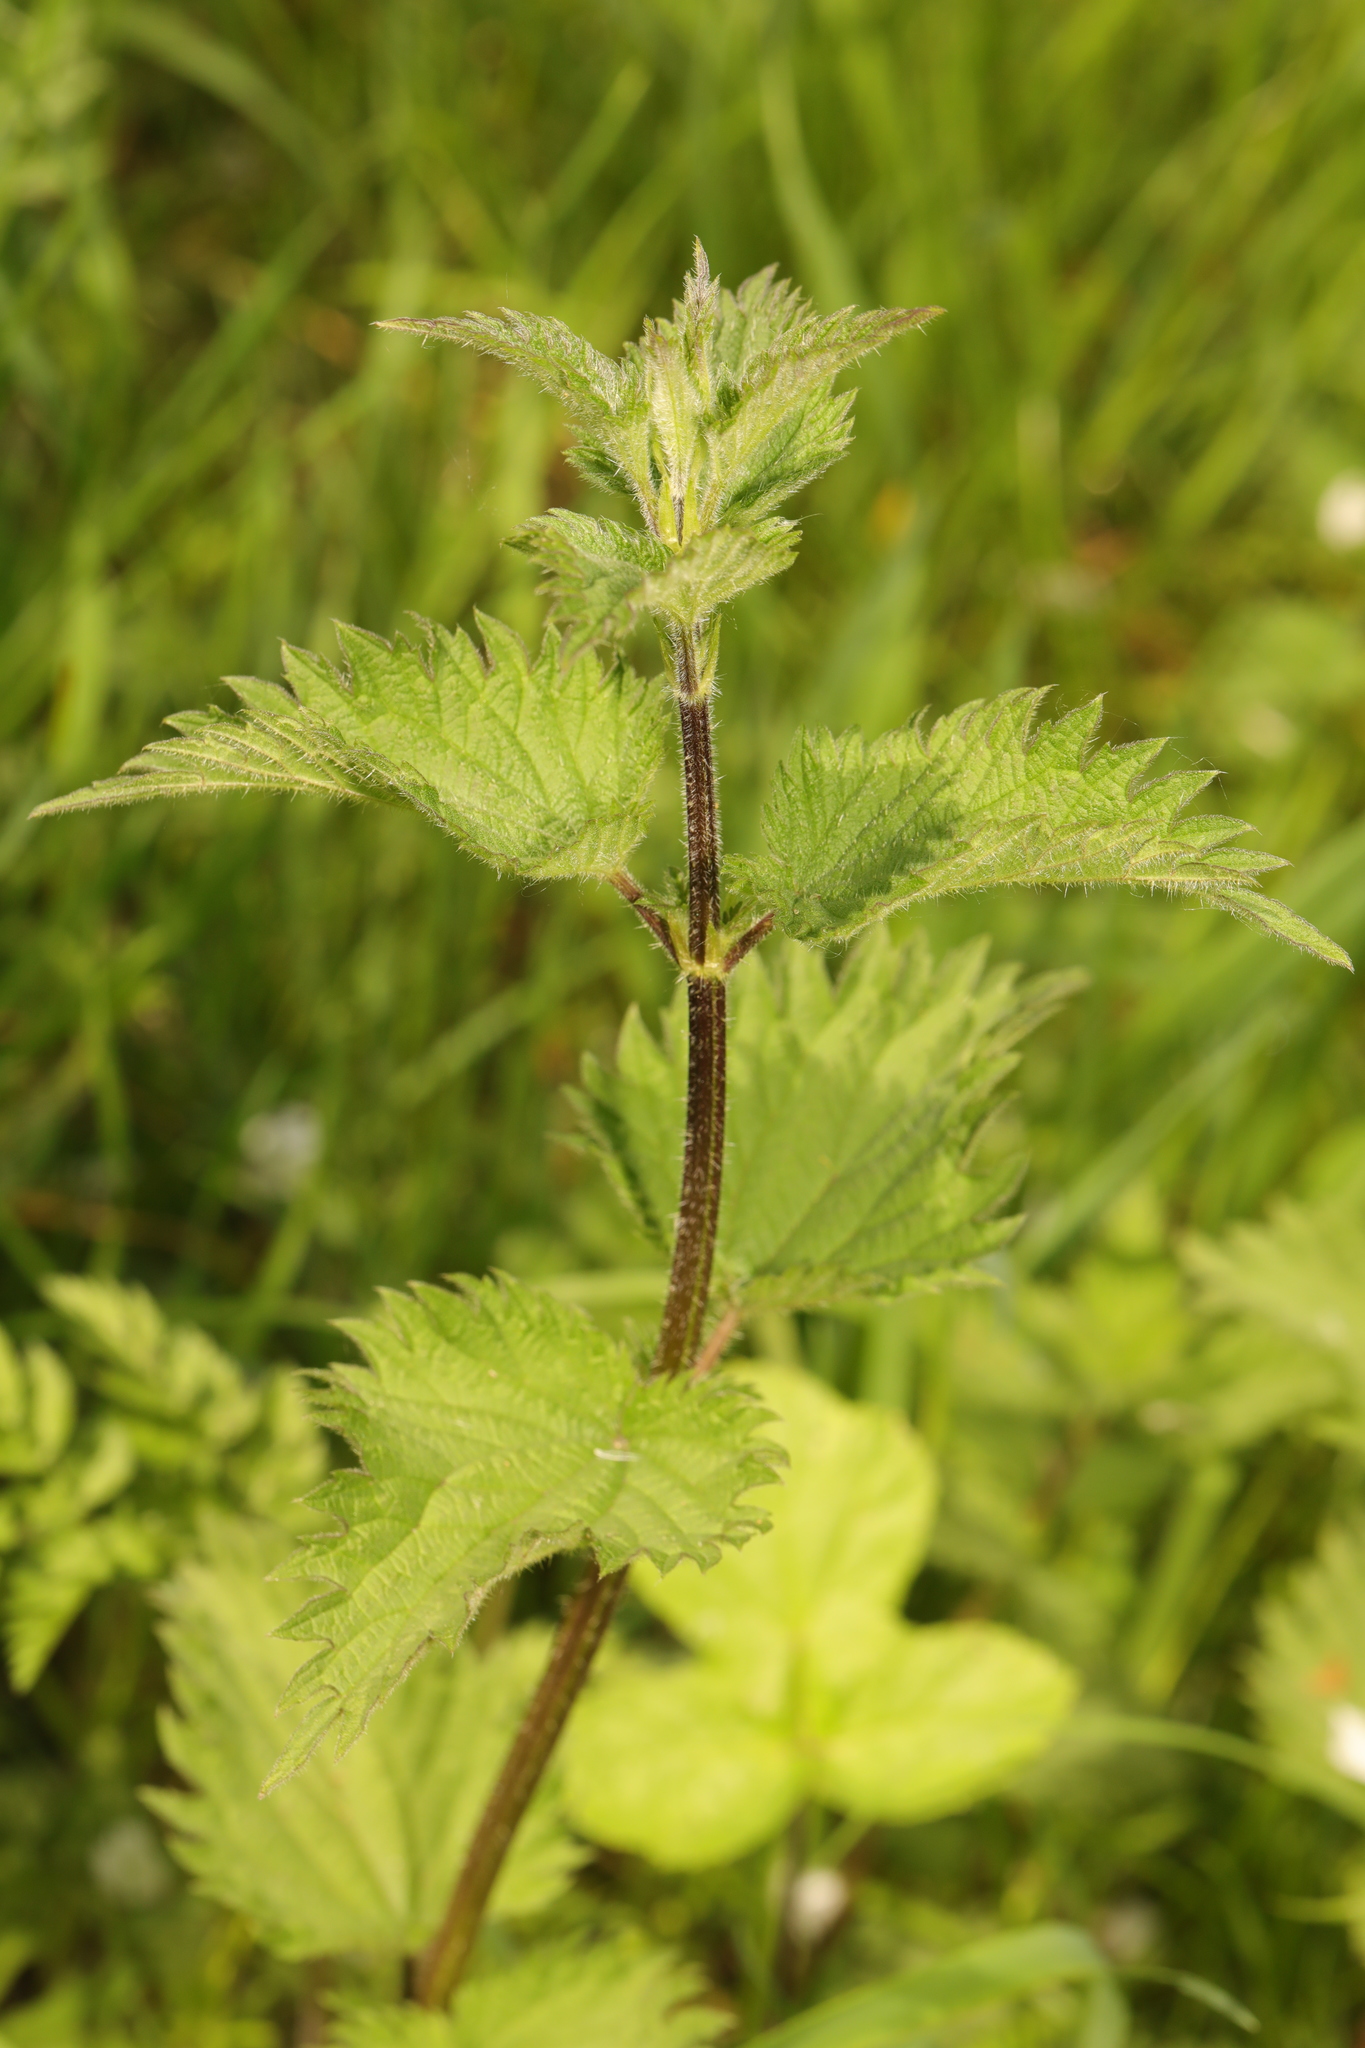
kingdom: Plantae
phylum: Tracheophyta
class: Magnoliopsida
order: Rosales
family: Urticaceae
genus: Urtica
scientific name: Urtica dioica
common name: Common nettle
